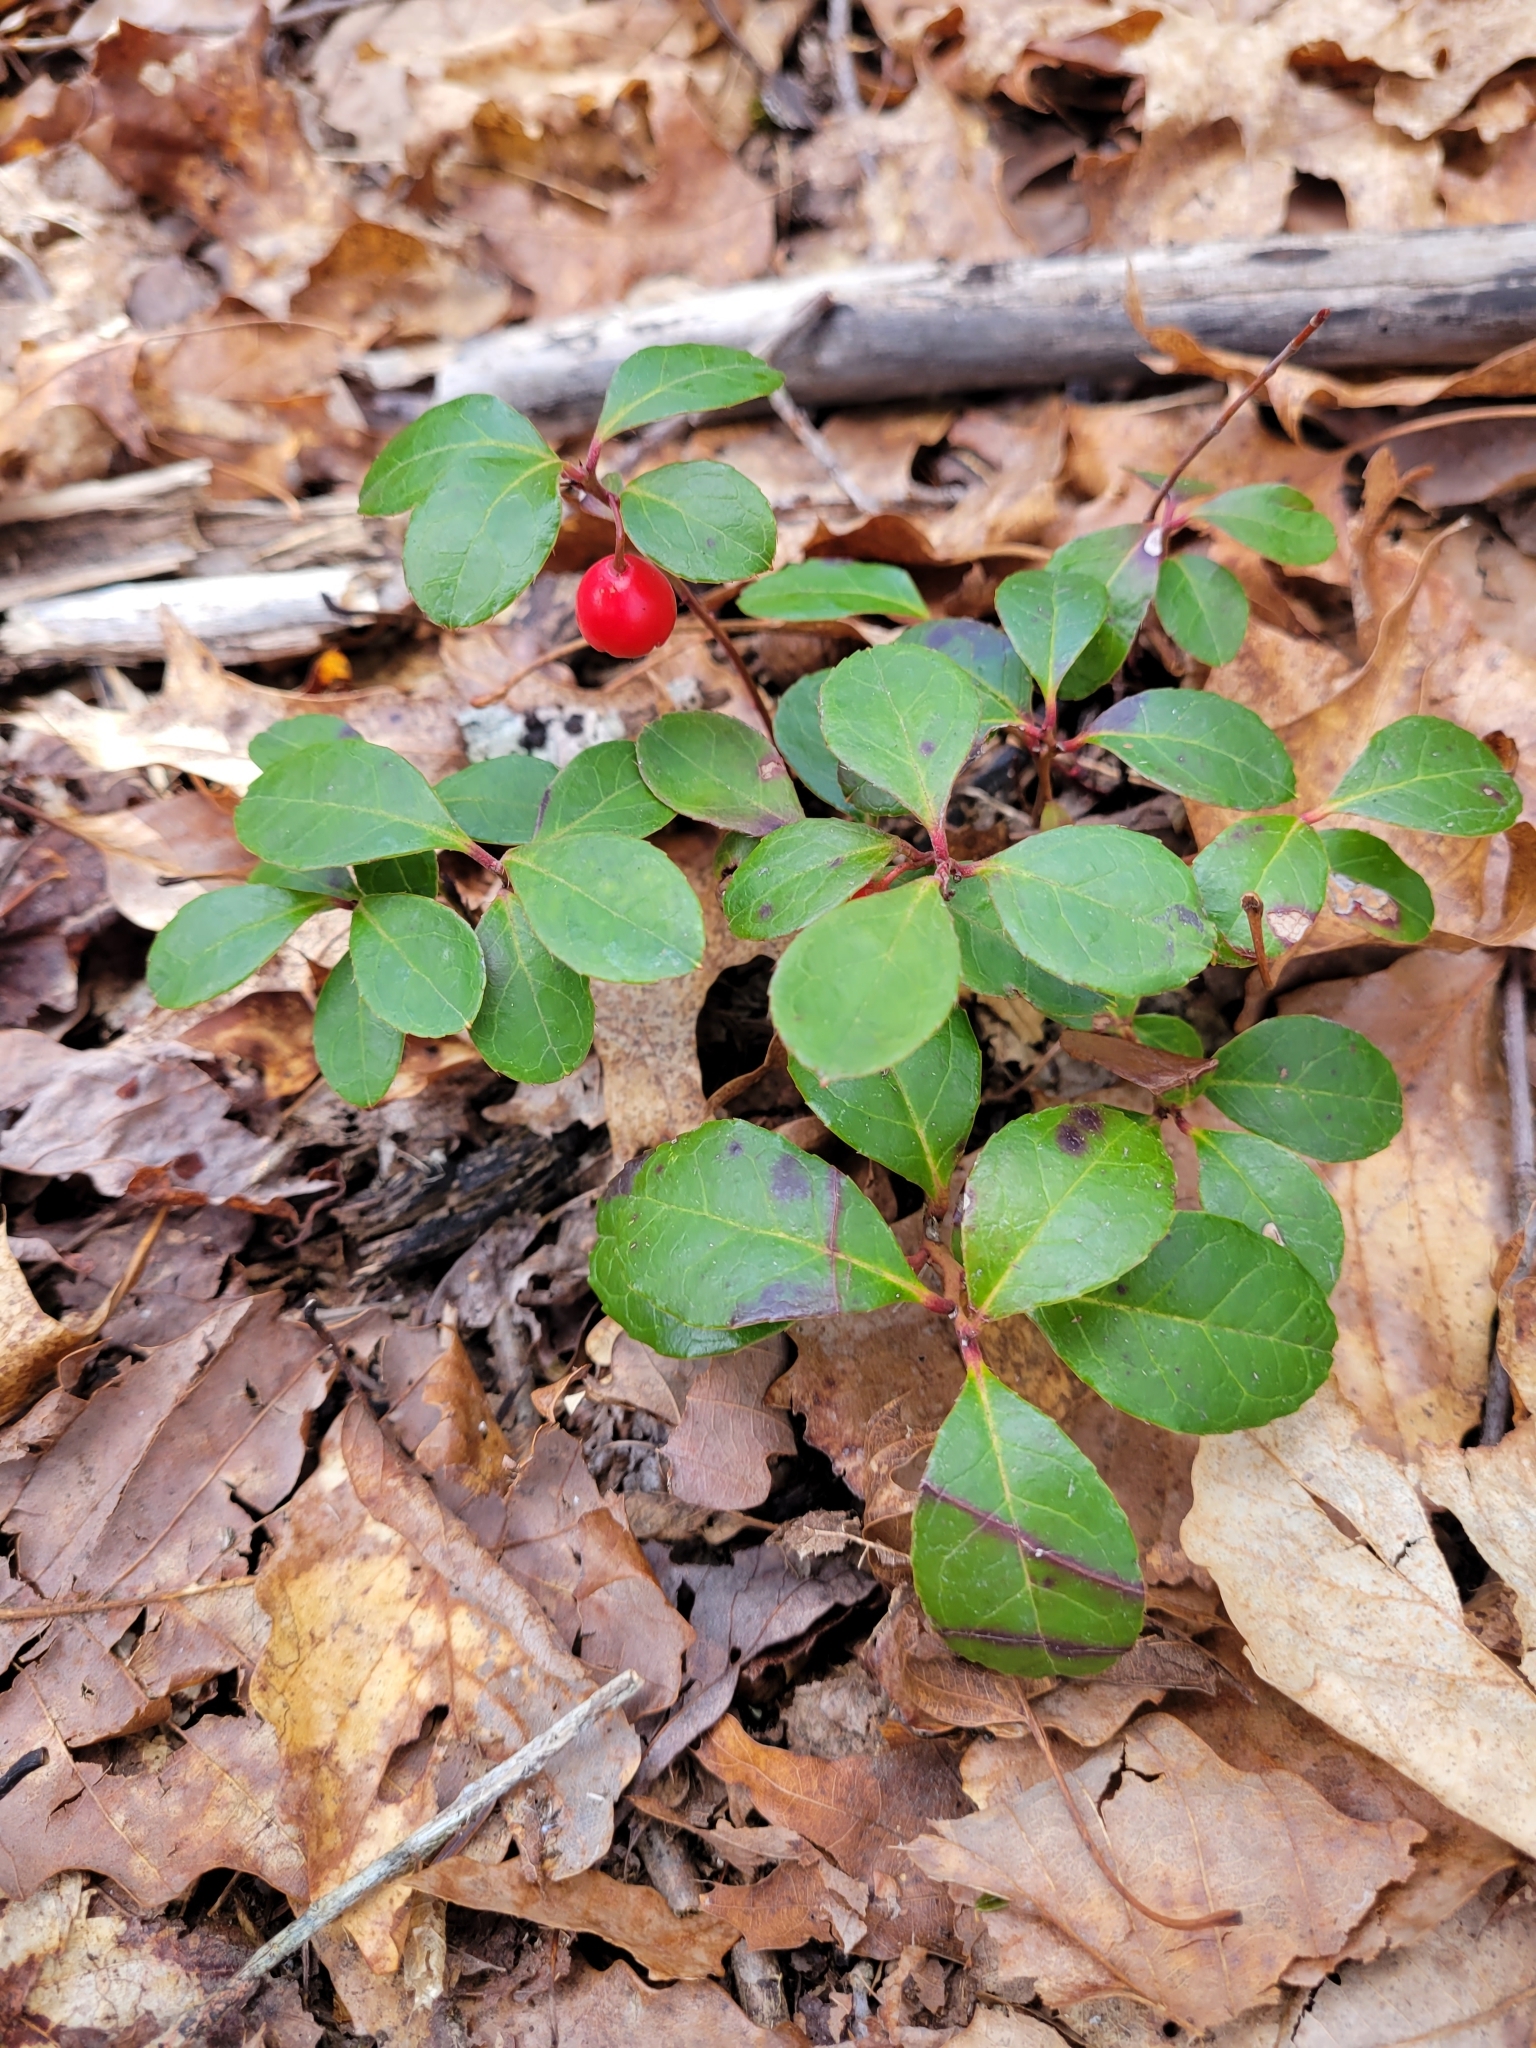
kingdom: Plantae
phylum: Tracheophyta
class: Magnoliopsida
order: Ericales
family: Ericaceae
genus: Gaultheria
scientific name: Gaultheria procumbens
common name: Checkerberry
